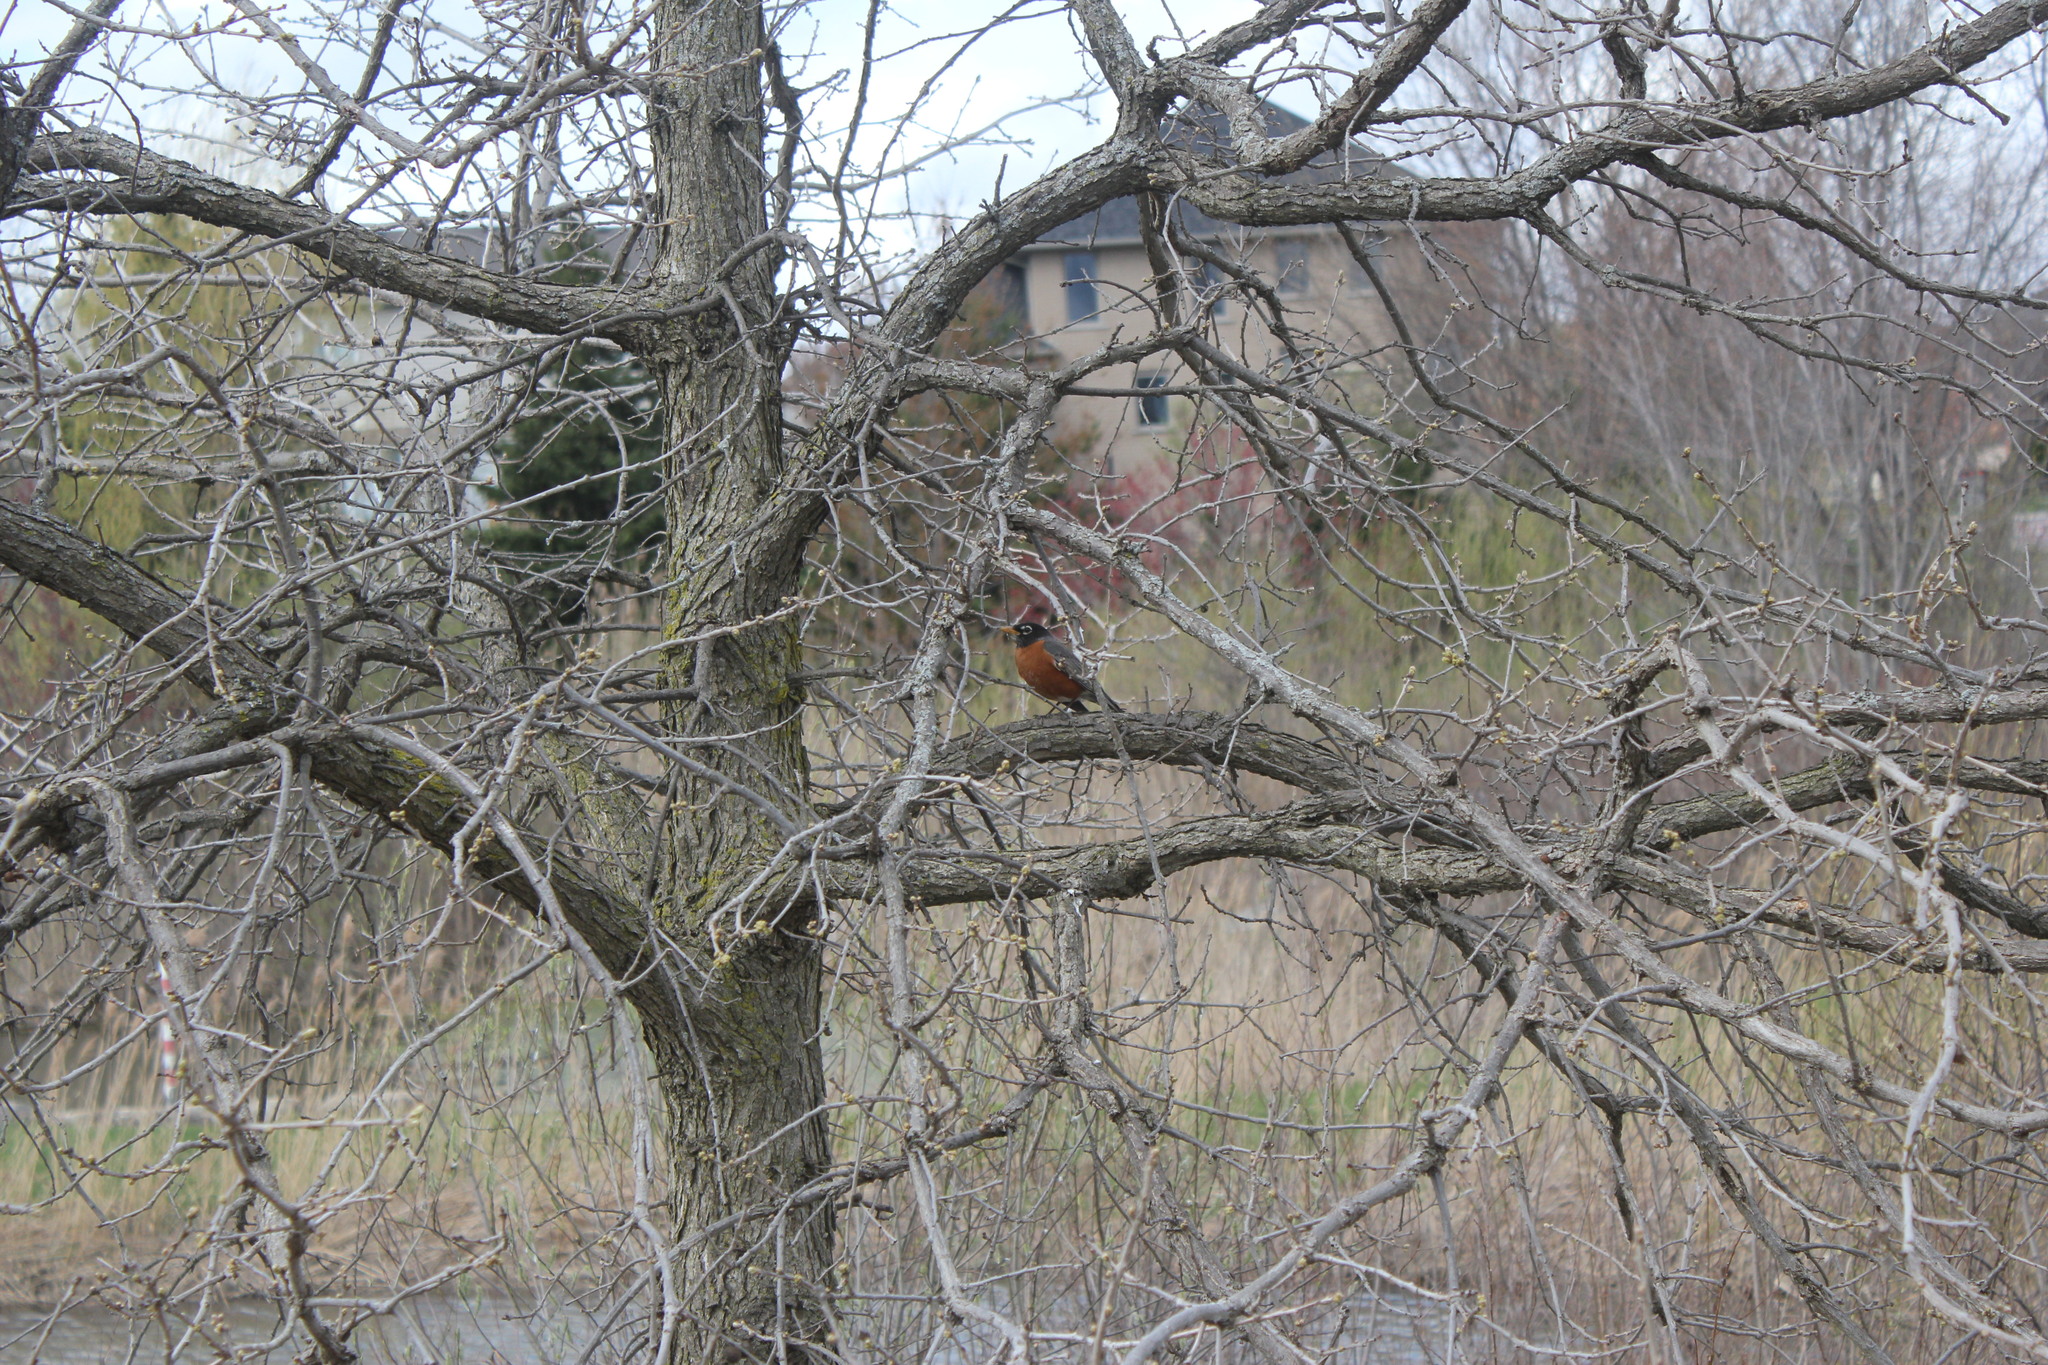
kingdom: Animalia
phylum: Chordata
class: Aves
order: Passeriformes
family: Turdidae
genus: Turdus
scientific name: Turdus migratorius
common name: American robin
